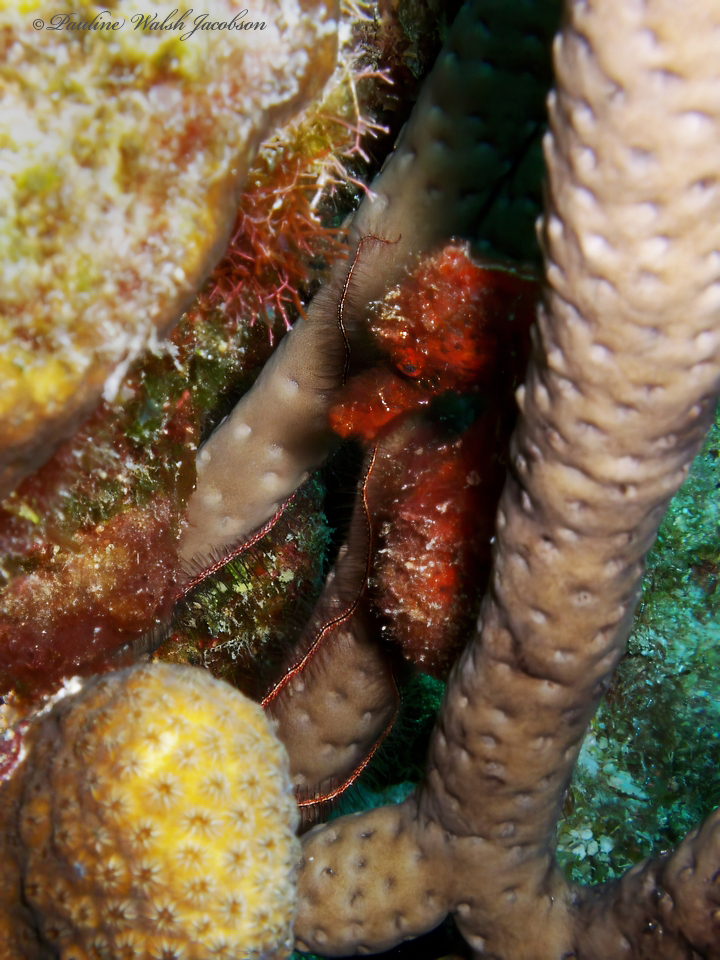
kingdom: Animalia
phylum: Chordata
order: Syngnathiformes
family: Syngnathidae
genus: Hippocampus
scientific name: Hippocampus reidi
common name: Slender seahorse
